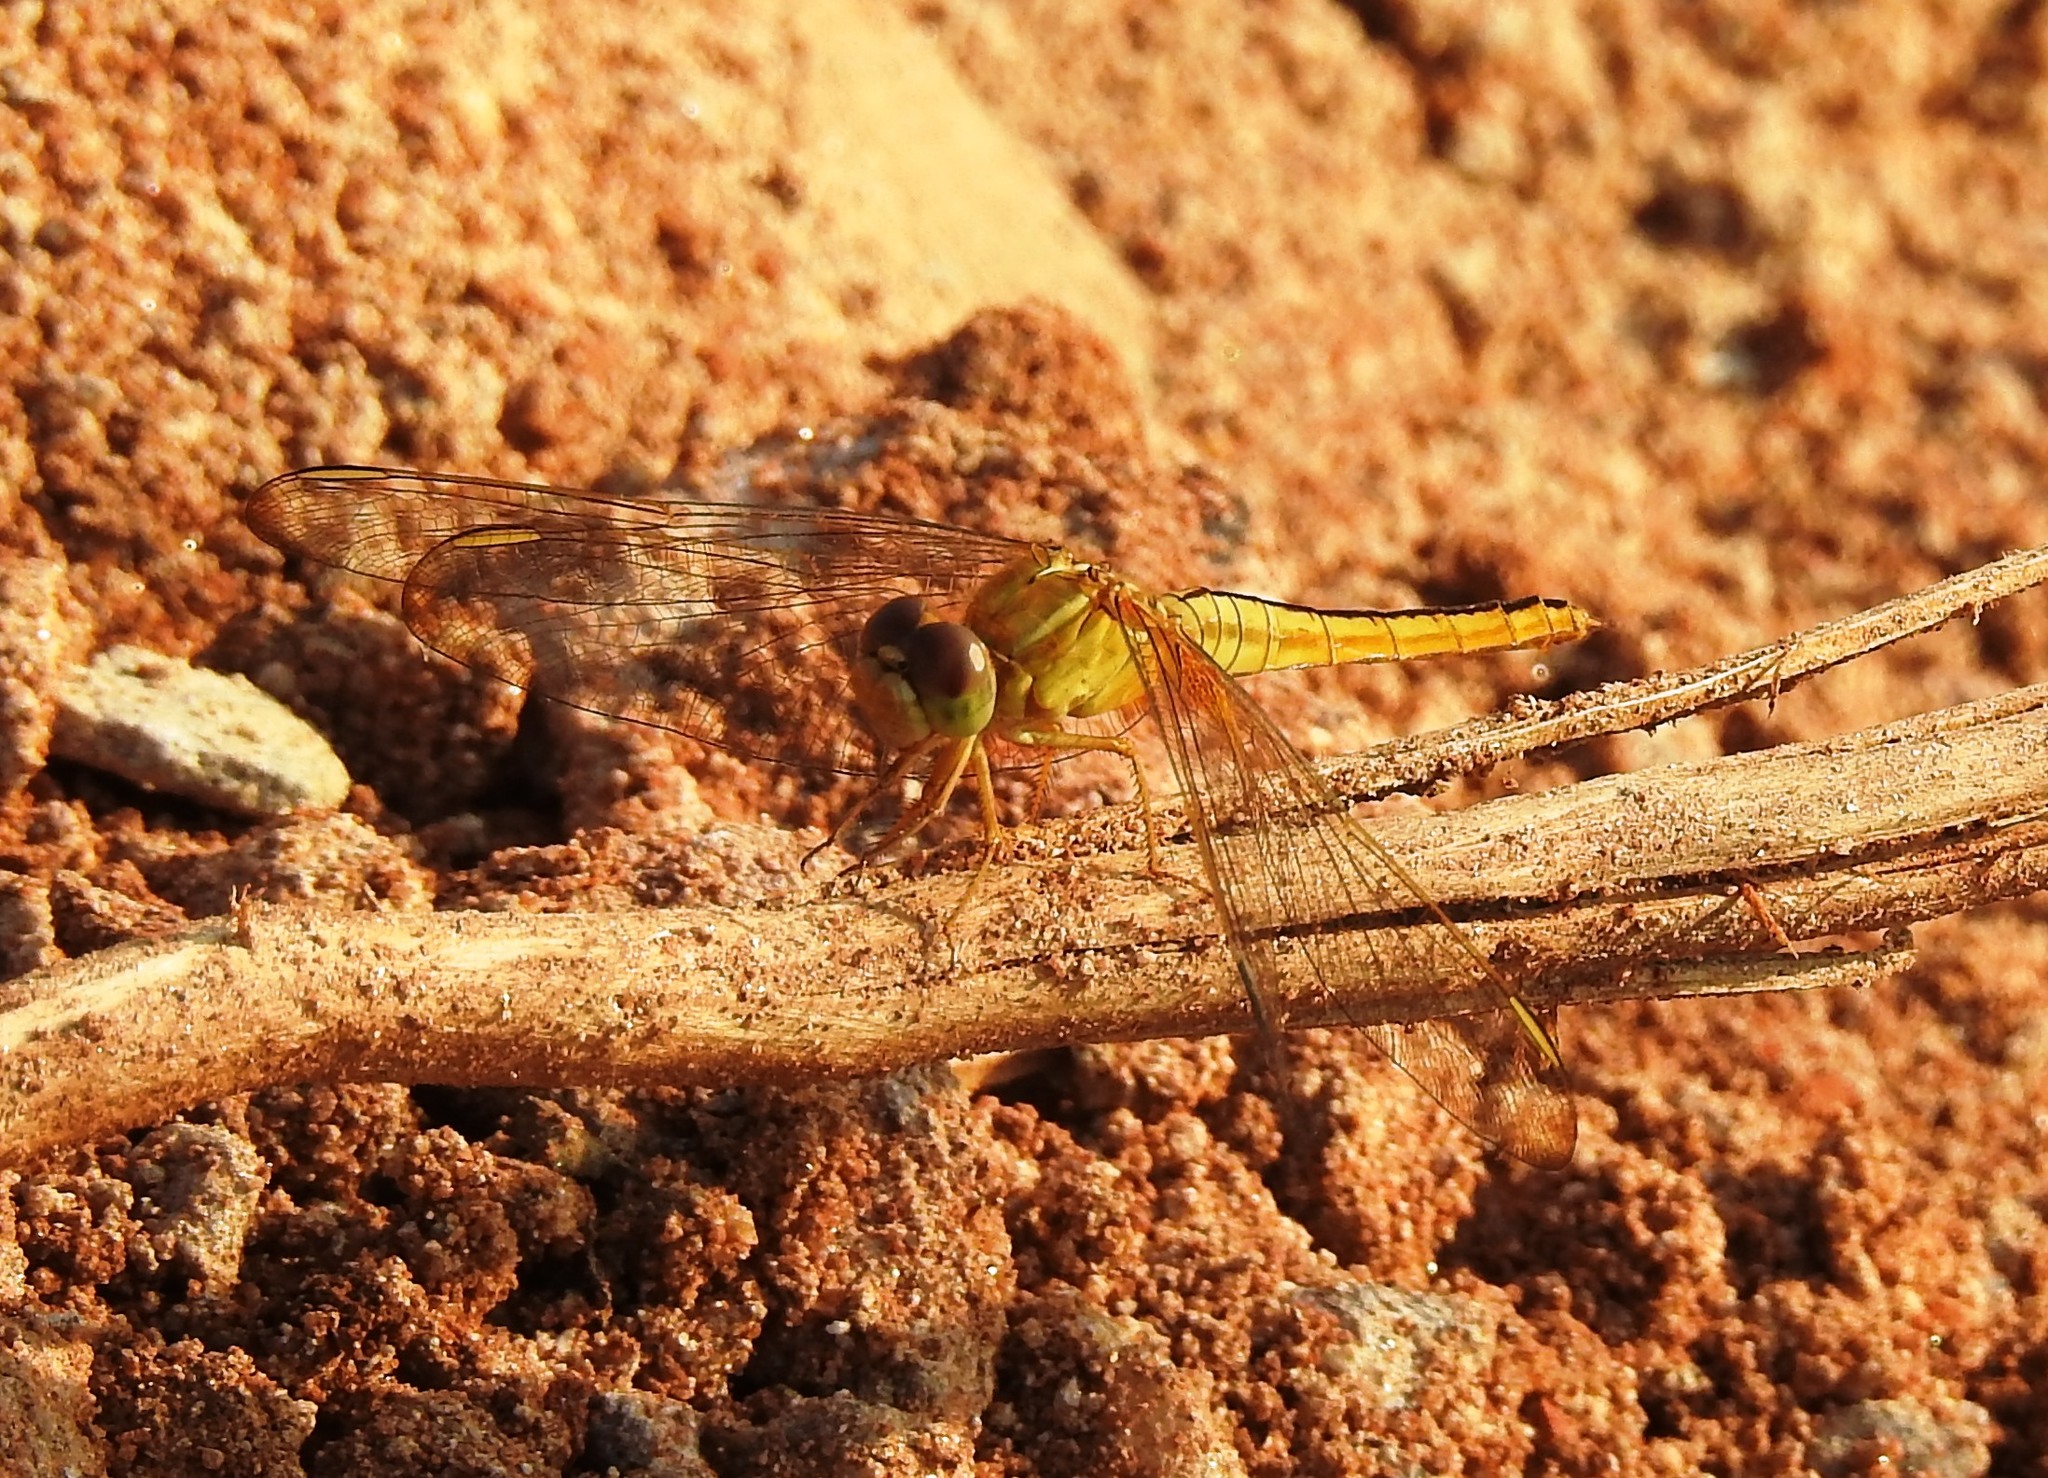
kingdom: Animalia
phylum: Arthropoda
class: Insecta
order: Odonata
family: Libellulidae
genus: Crocothemis
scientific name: Crocothemis servilia
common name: Scarlet skimmer
